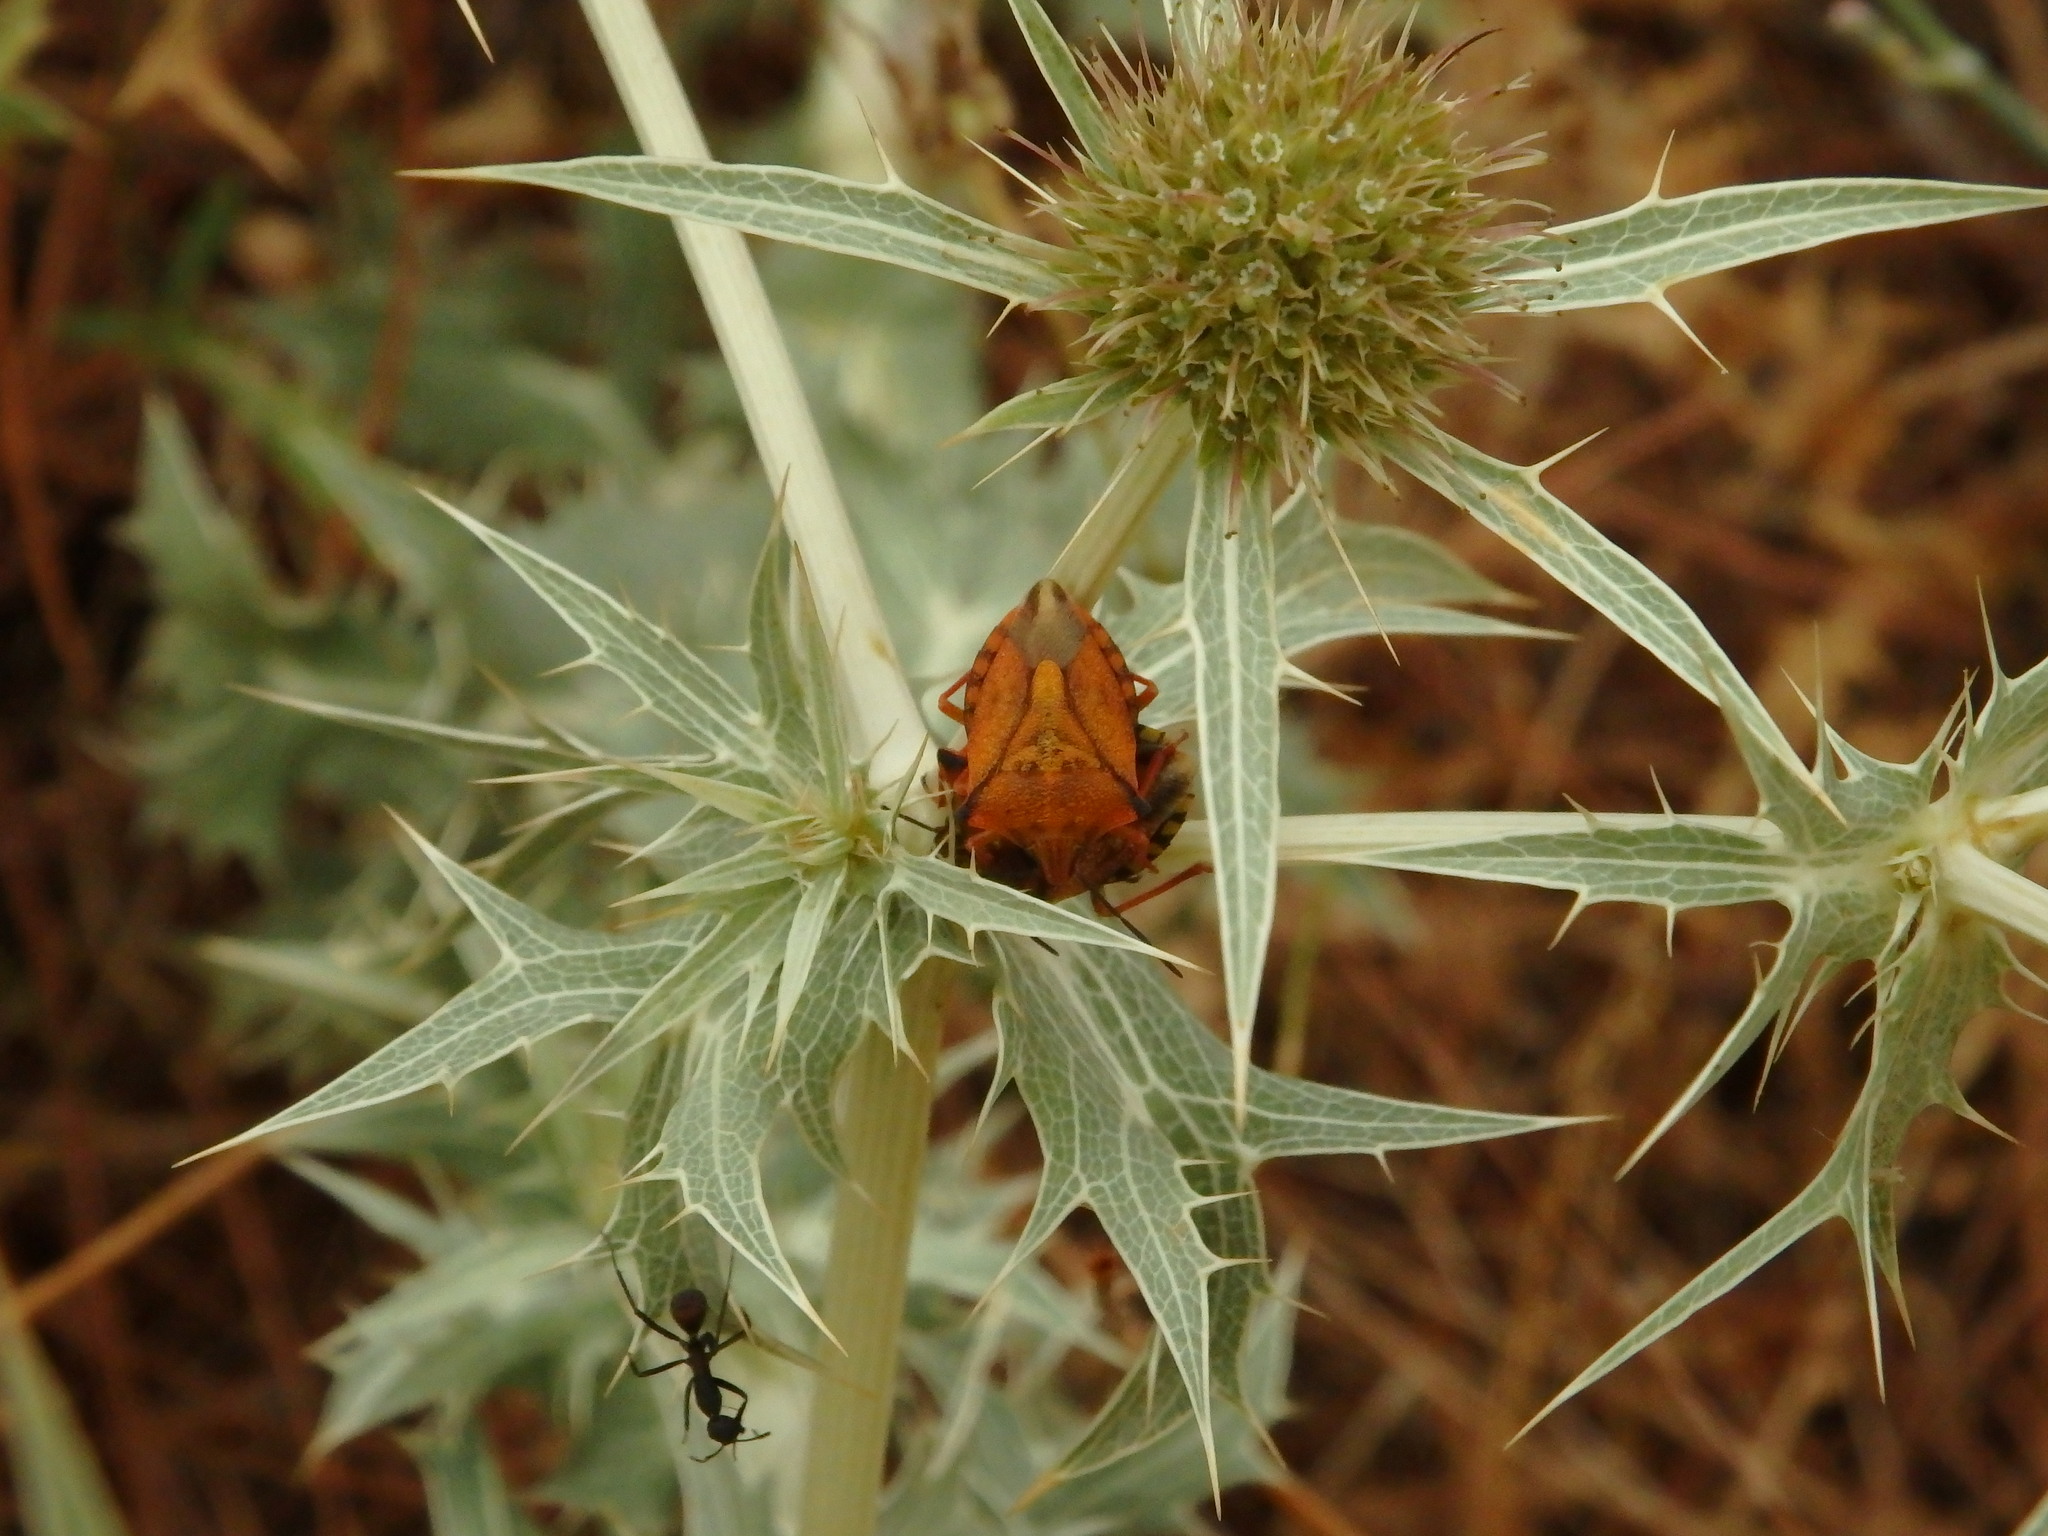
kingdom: Animalia
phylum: Arthropoda
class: Insecta
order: Hemiptera
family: Pentatomidae
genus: Carpocoris
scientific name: Carpocoris mediterraneus
